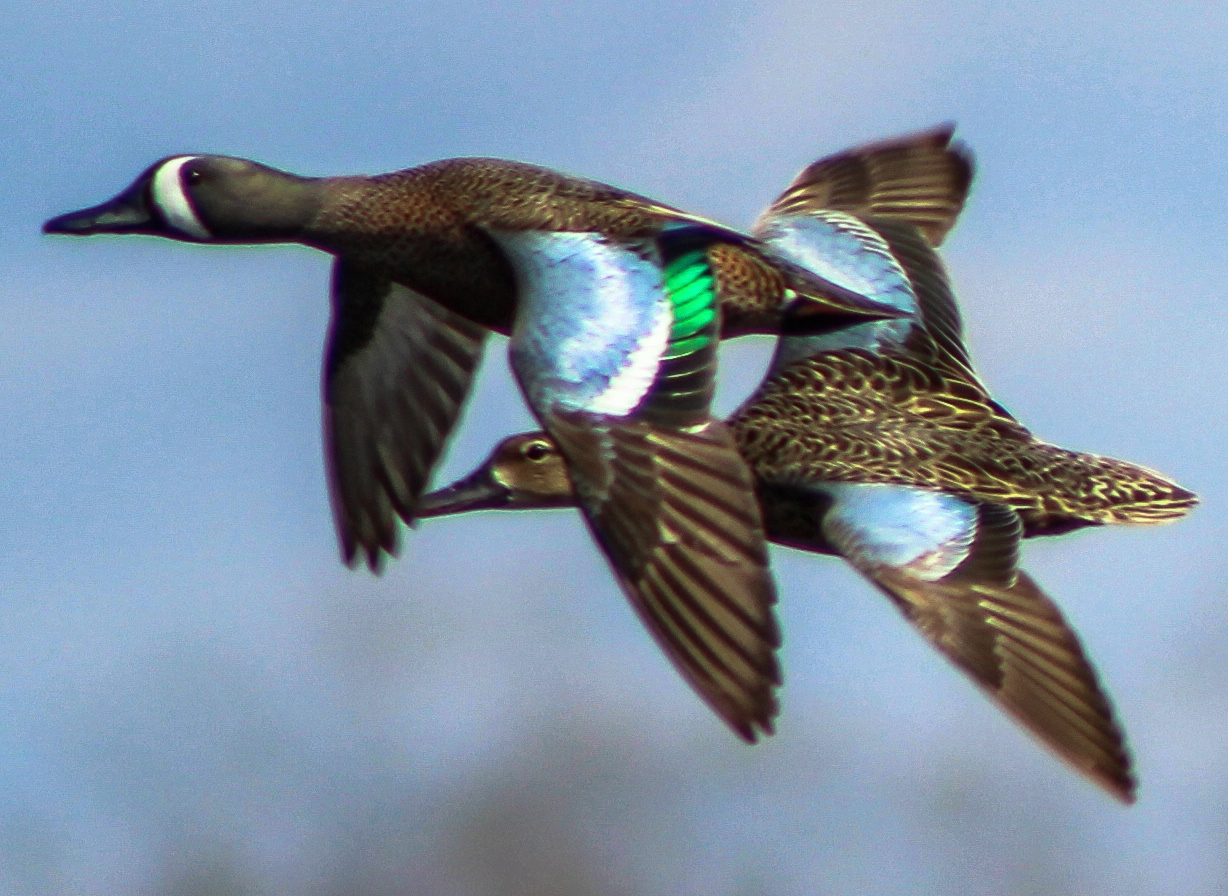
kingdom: Animalia
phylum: Chordata
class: Aves
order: Anseriformes
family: Anatidae
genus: Spatula
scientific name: Spatula discors
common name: Blue-winged teal
